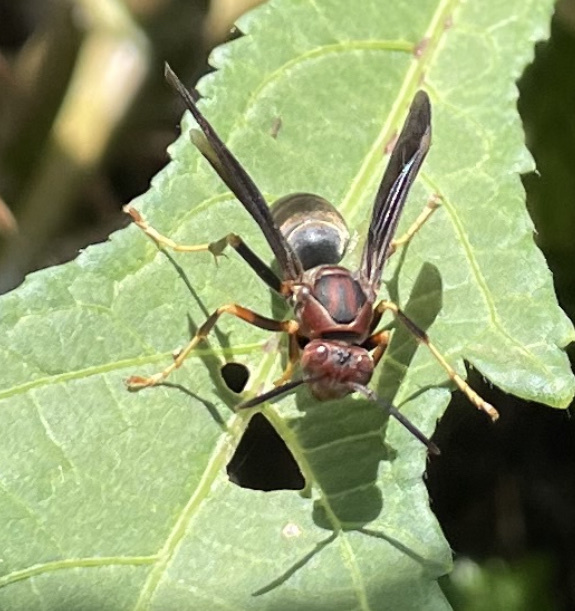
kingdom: Animalia
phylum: Arthropoda
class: Insecta
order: Hymenoptera
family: Eumenidae
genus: Polistes
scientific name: Polistes metricus
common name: Metric paper wasp
